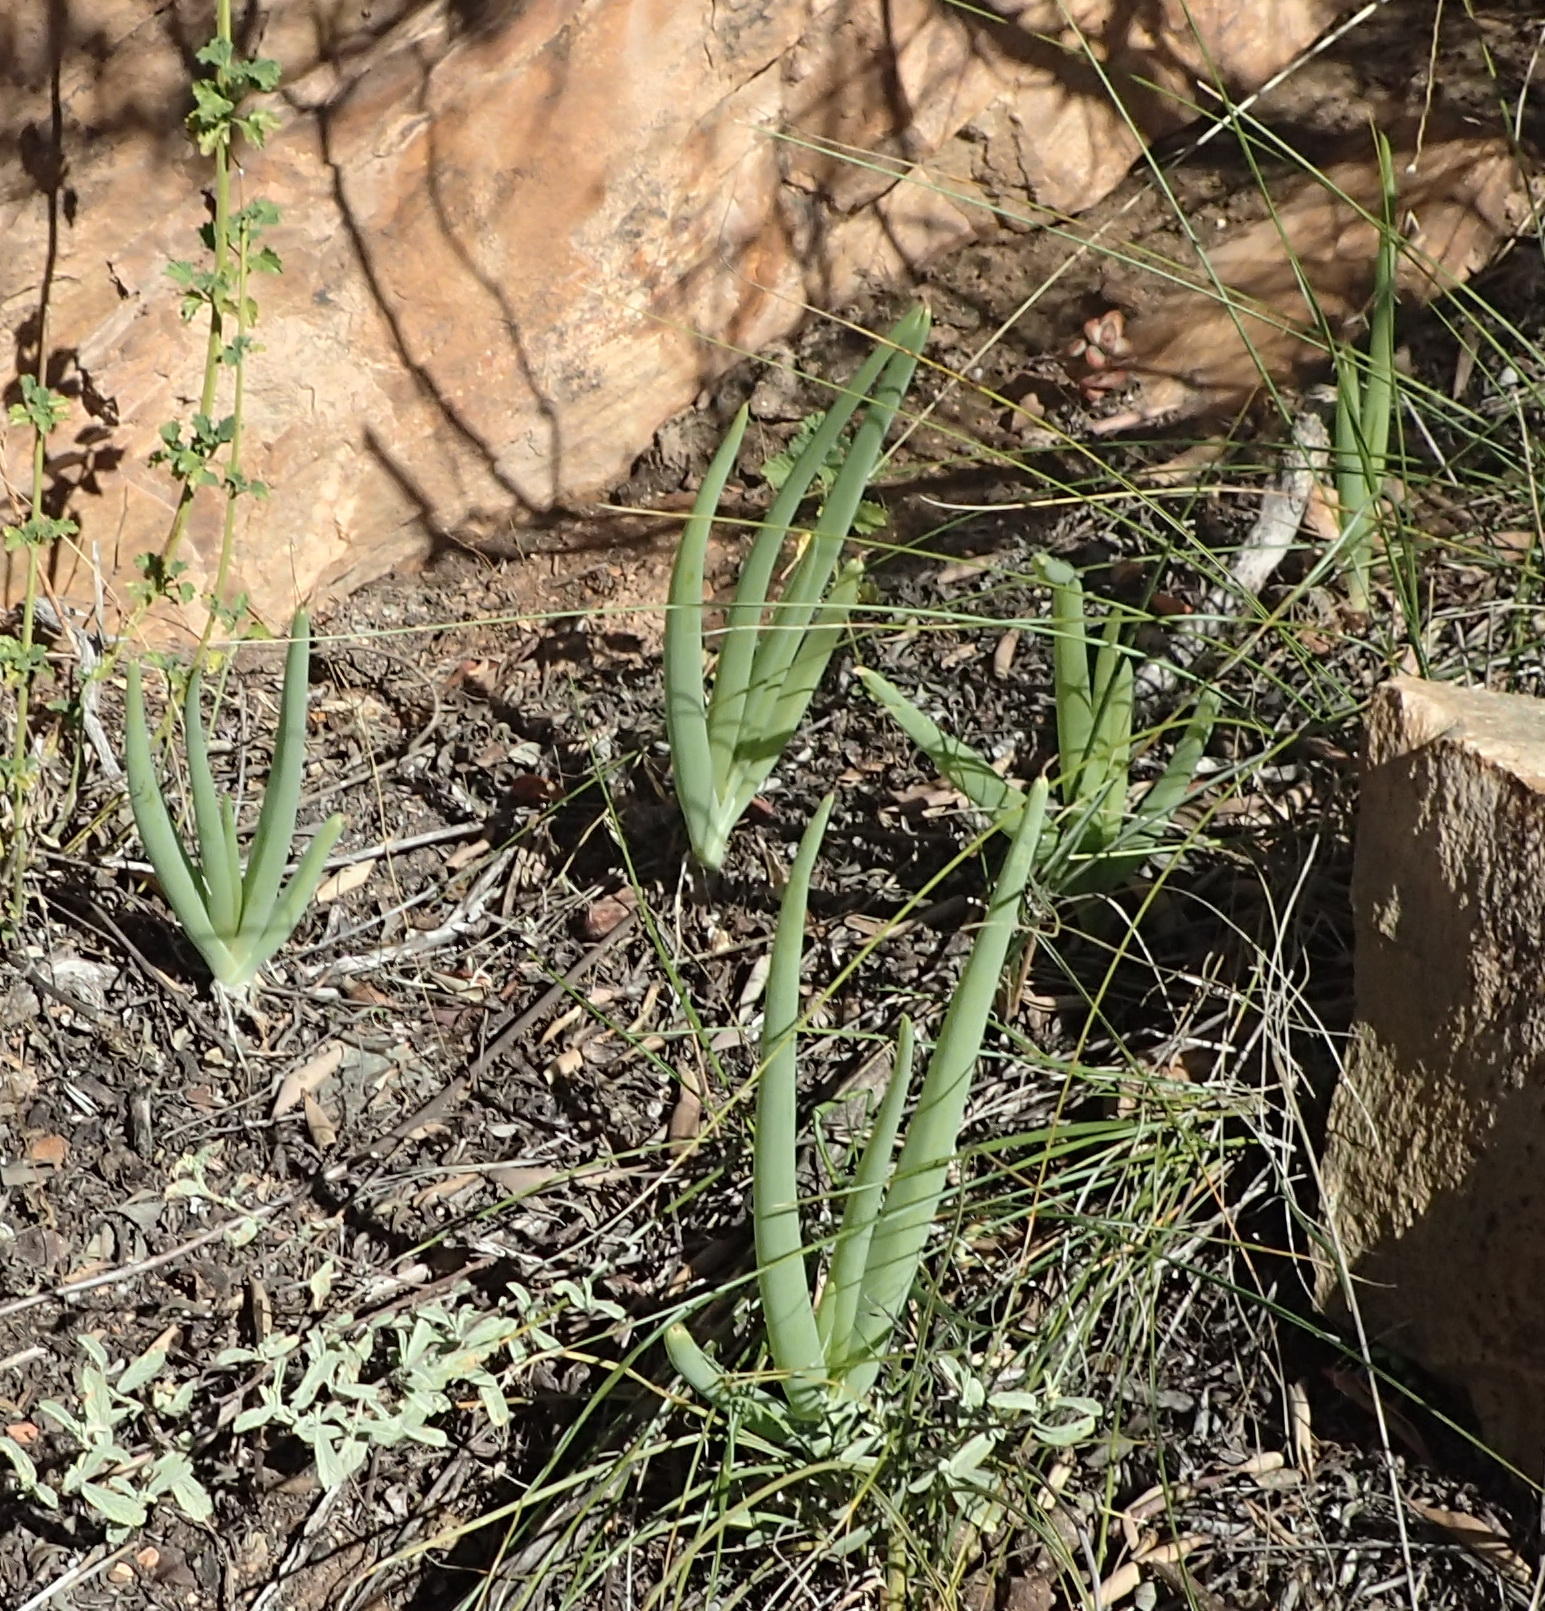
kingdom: Plantae
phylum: Tracheophyta
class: Liliopsida
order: Asparagales
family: Asphodelaceae
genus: Bulbine
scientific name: Bulbine succulenta
